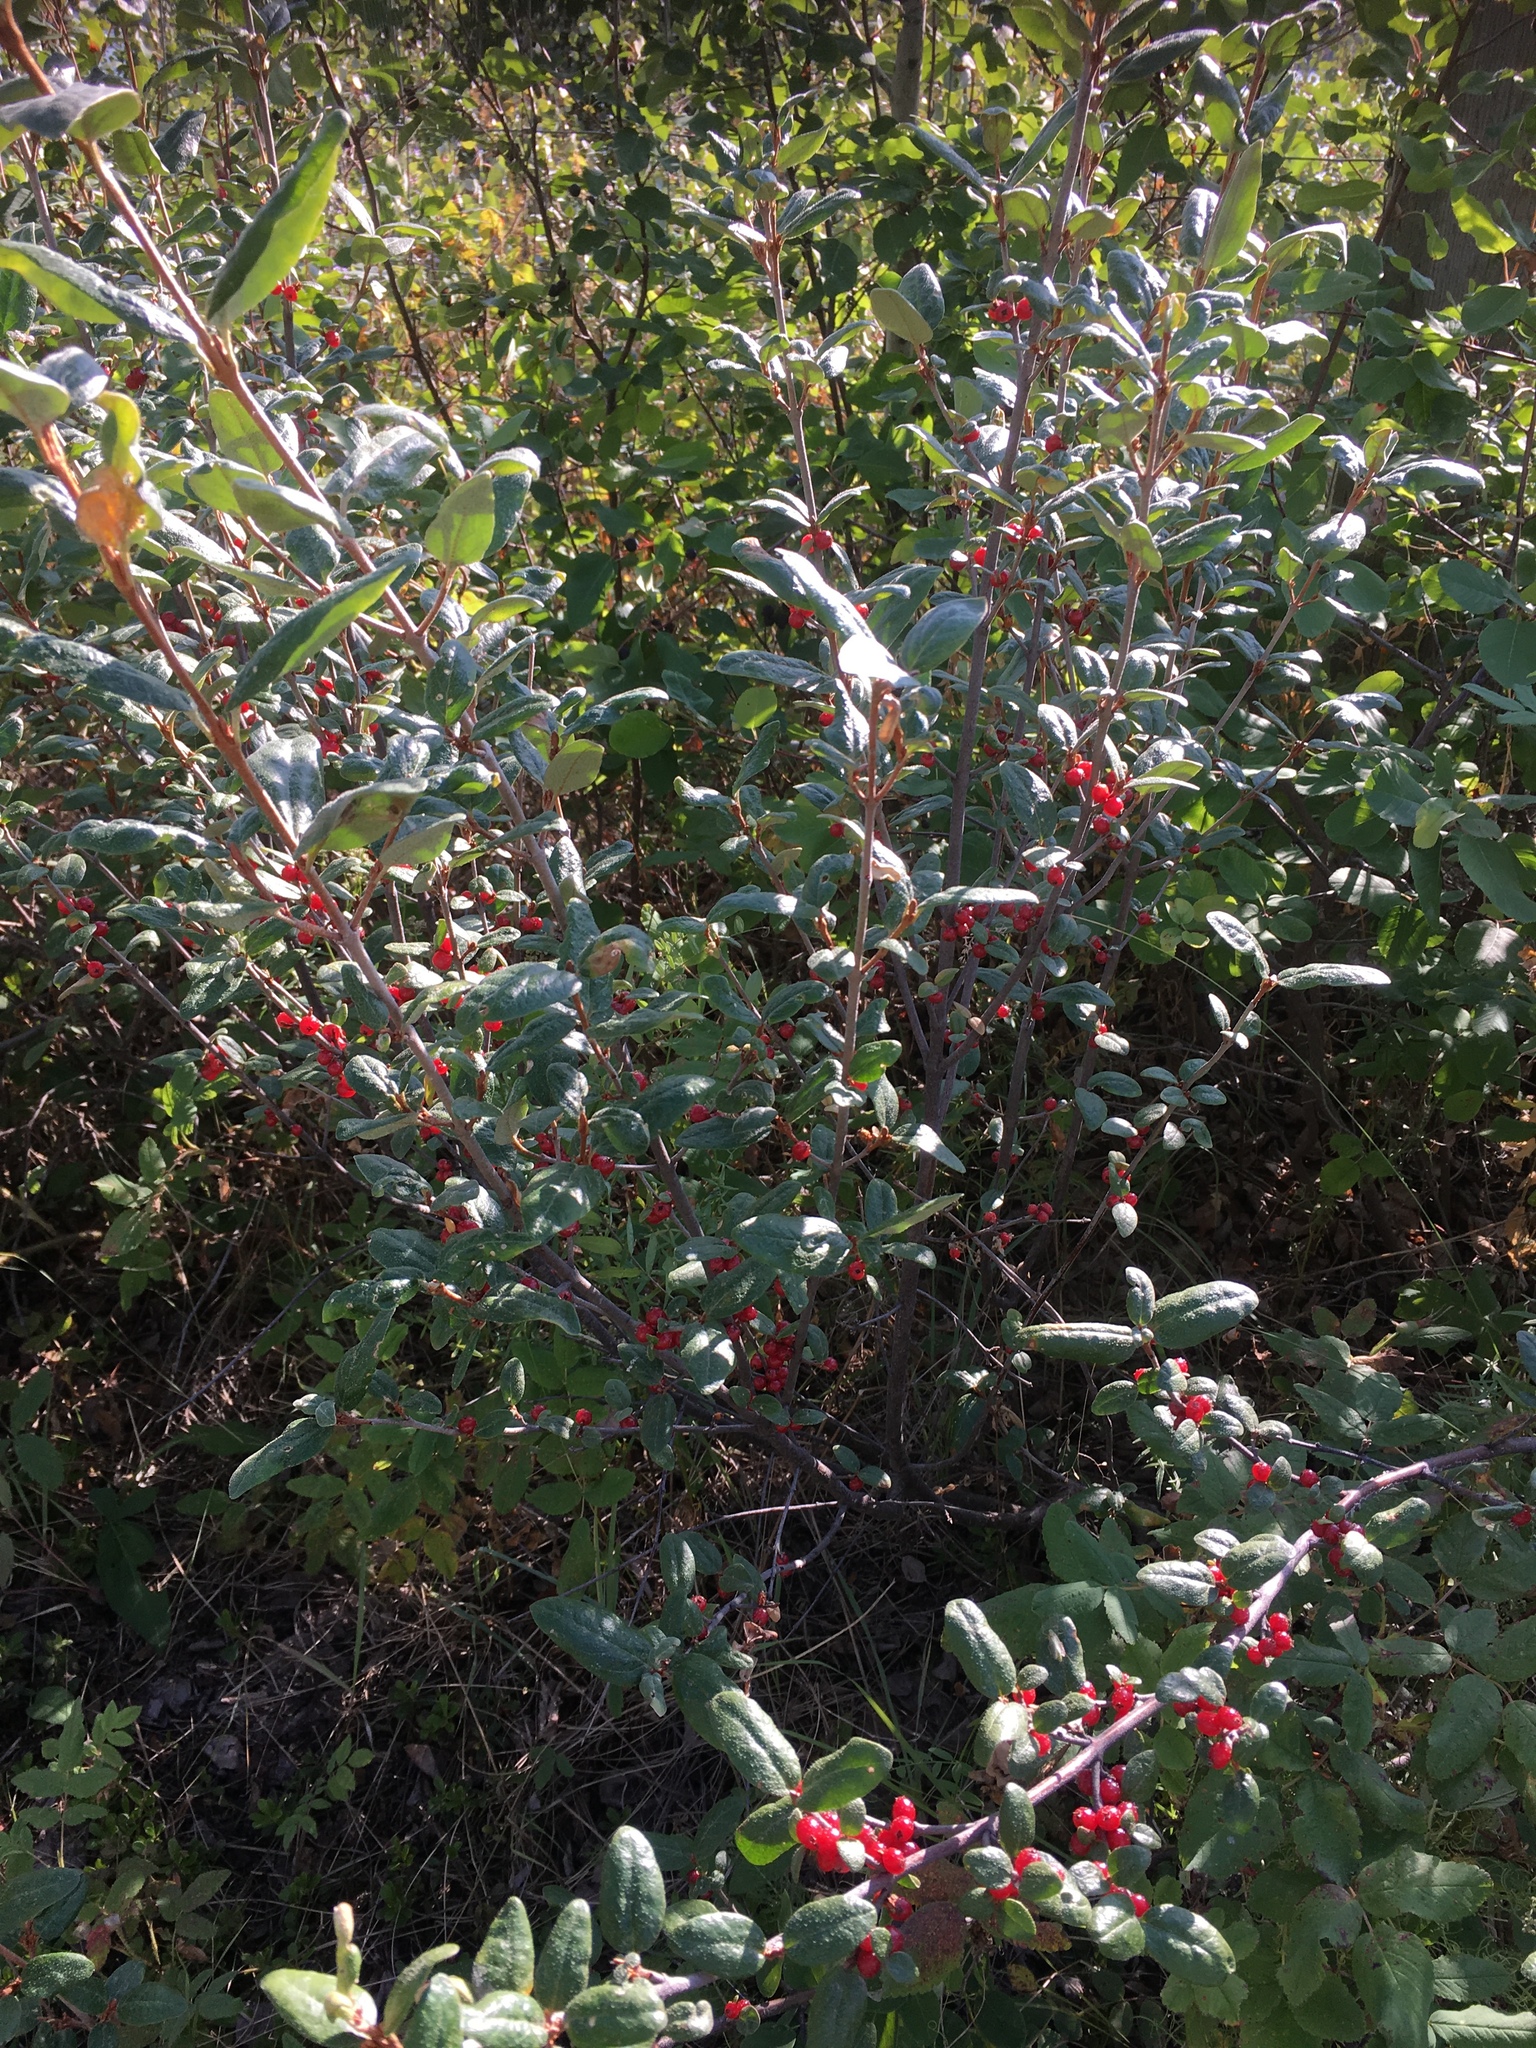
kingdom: Plantae
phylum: Tracheophyta
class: Magnoliopsida
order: Rosales
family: Elaeagnaceae
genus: Shepherdia
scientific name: Shepherdia canadensis
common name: Soapberry
